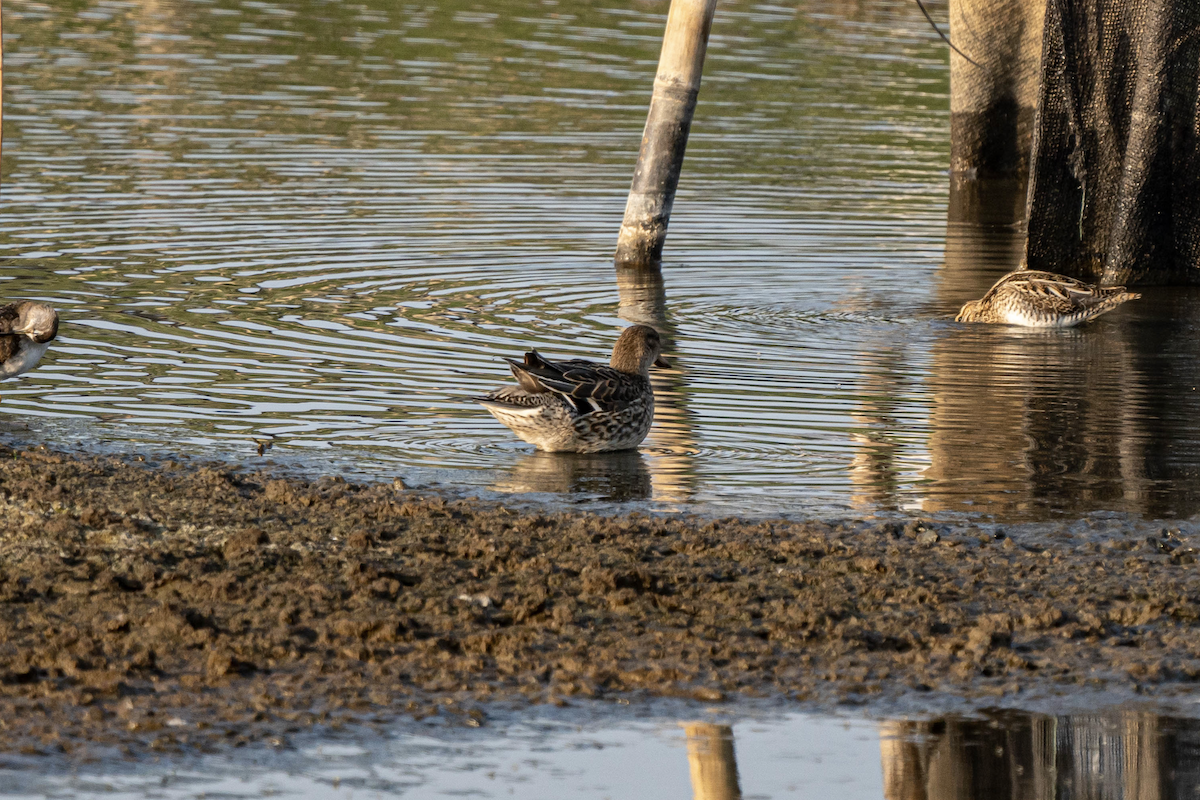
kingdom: Animalia
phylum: Chordata
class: Aves
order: Anseriformes
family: Anatidae
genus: Anas
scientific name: Anas crecca
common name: Eurasian teal
